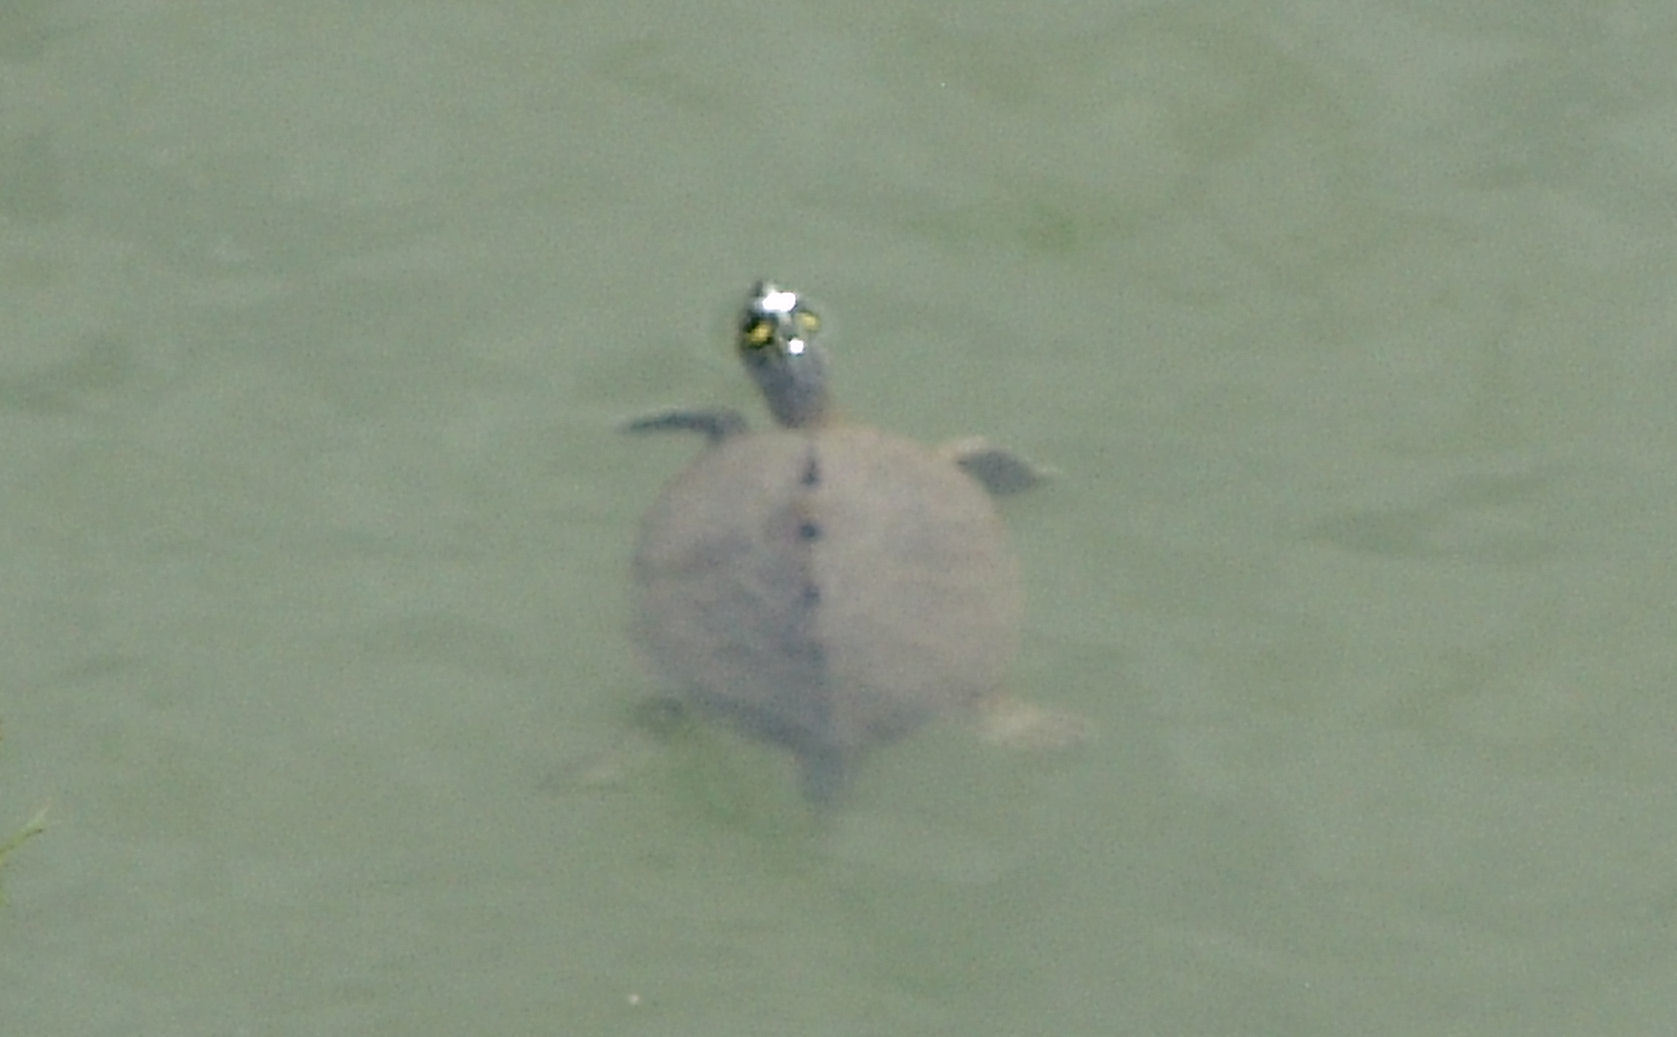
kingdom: Animalia
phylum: Chordata
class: Testudines
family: Emydidae
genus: Graptemys
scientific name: Graptemys ouachitensis
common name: Ouachita map turtle
